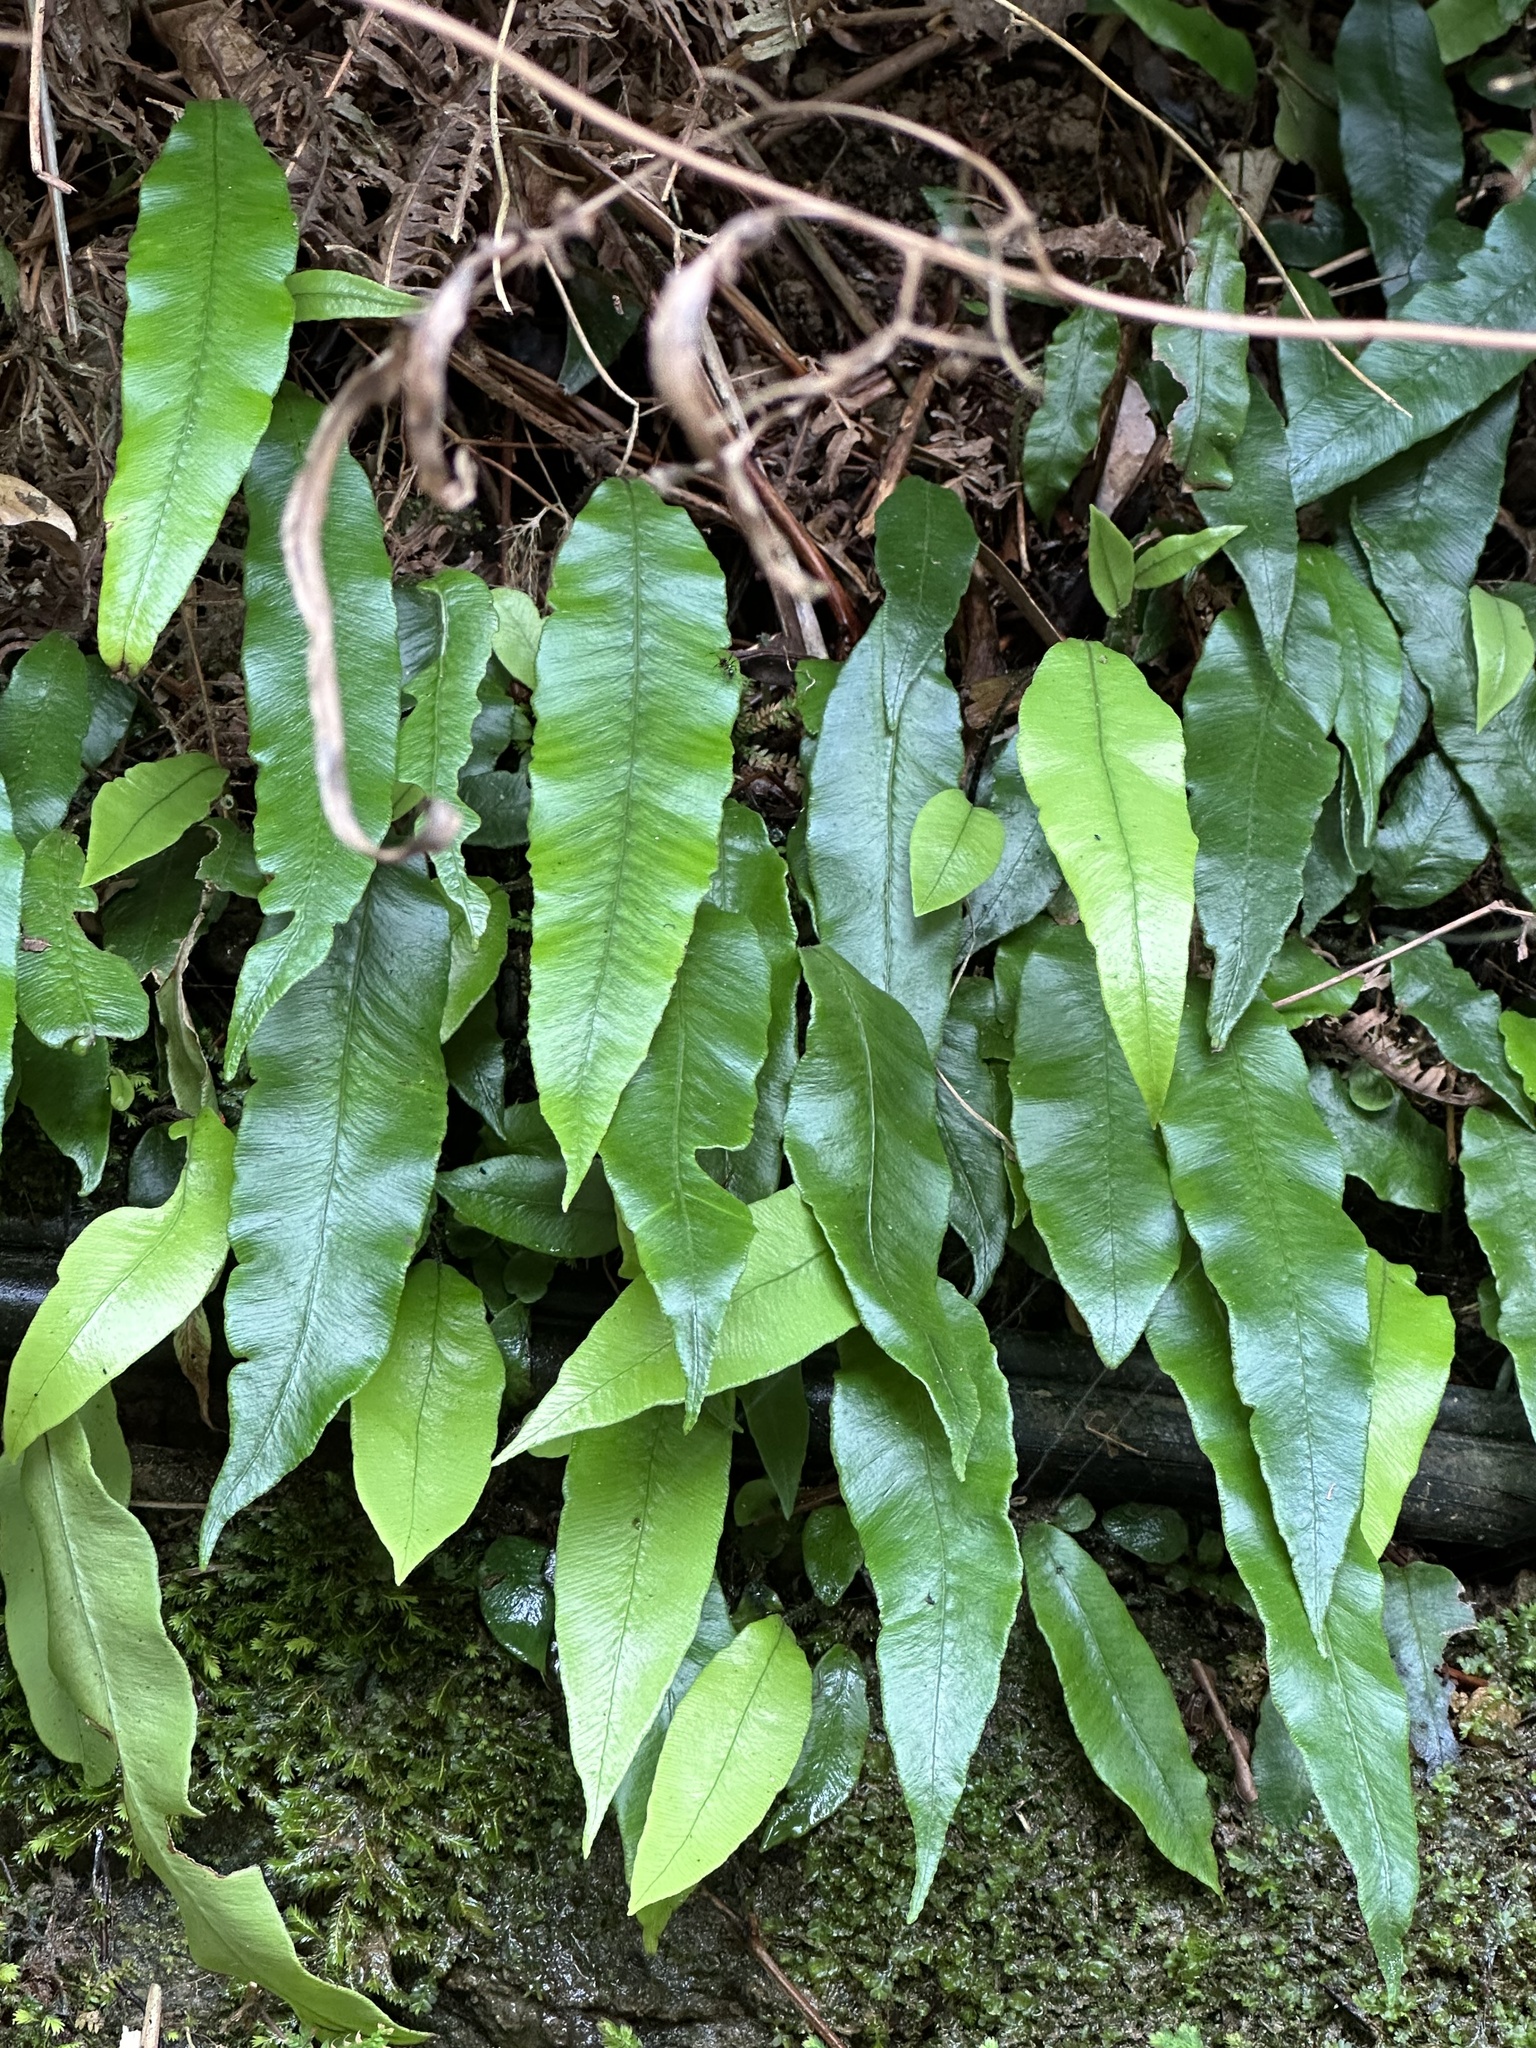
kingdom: Plantae
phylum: Tracheophyta
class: Polypodiopsida
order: Polypodiales
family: Athyriaceae
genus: Deparia
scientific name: Deparia lancea
